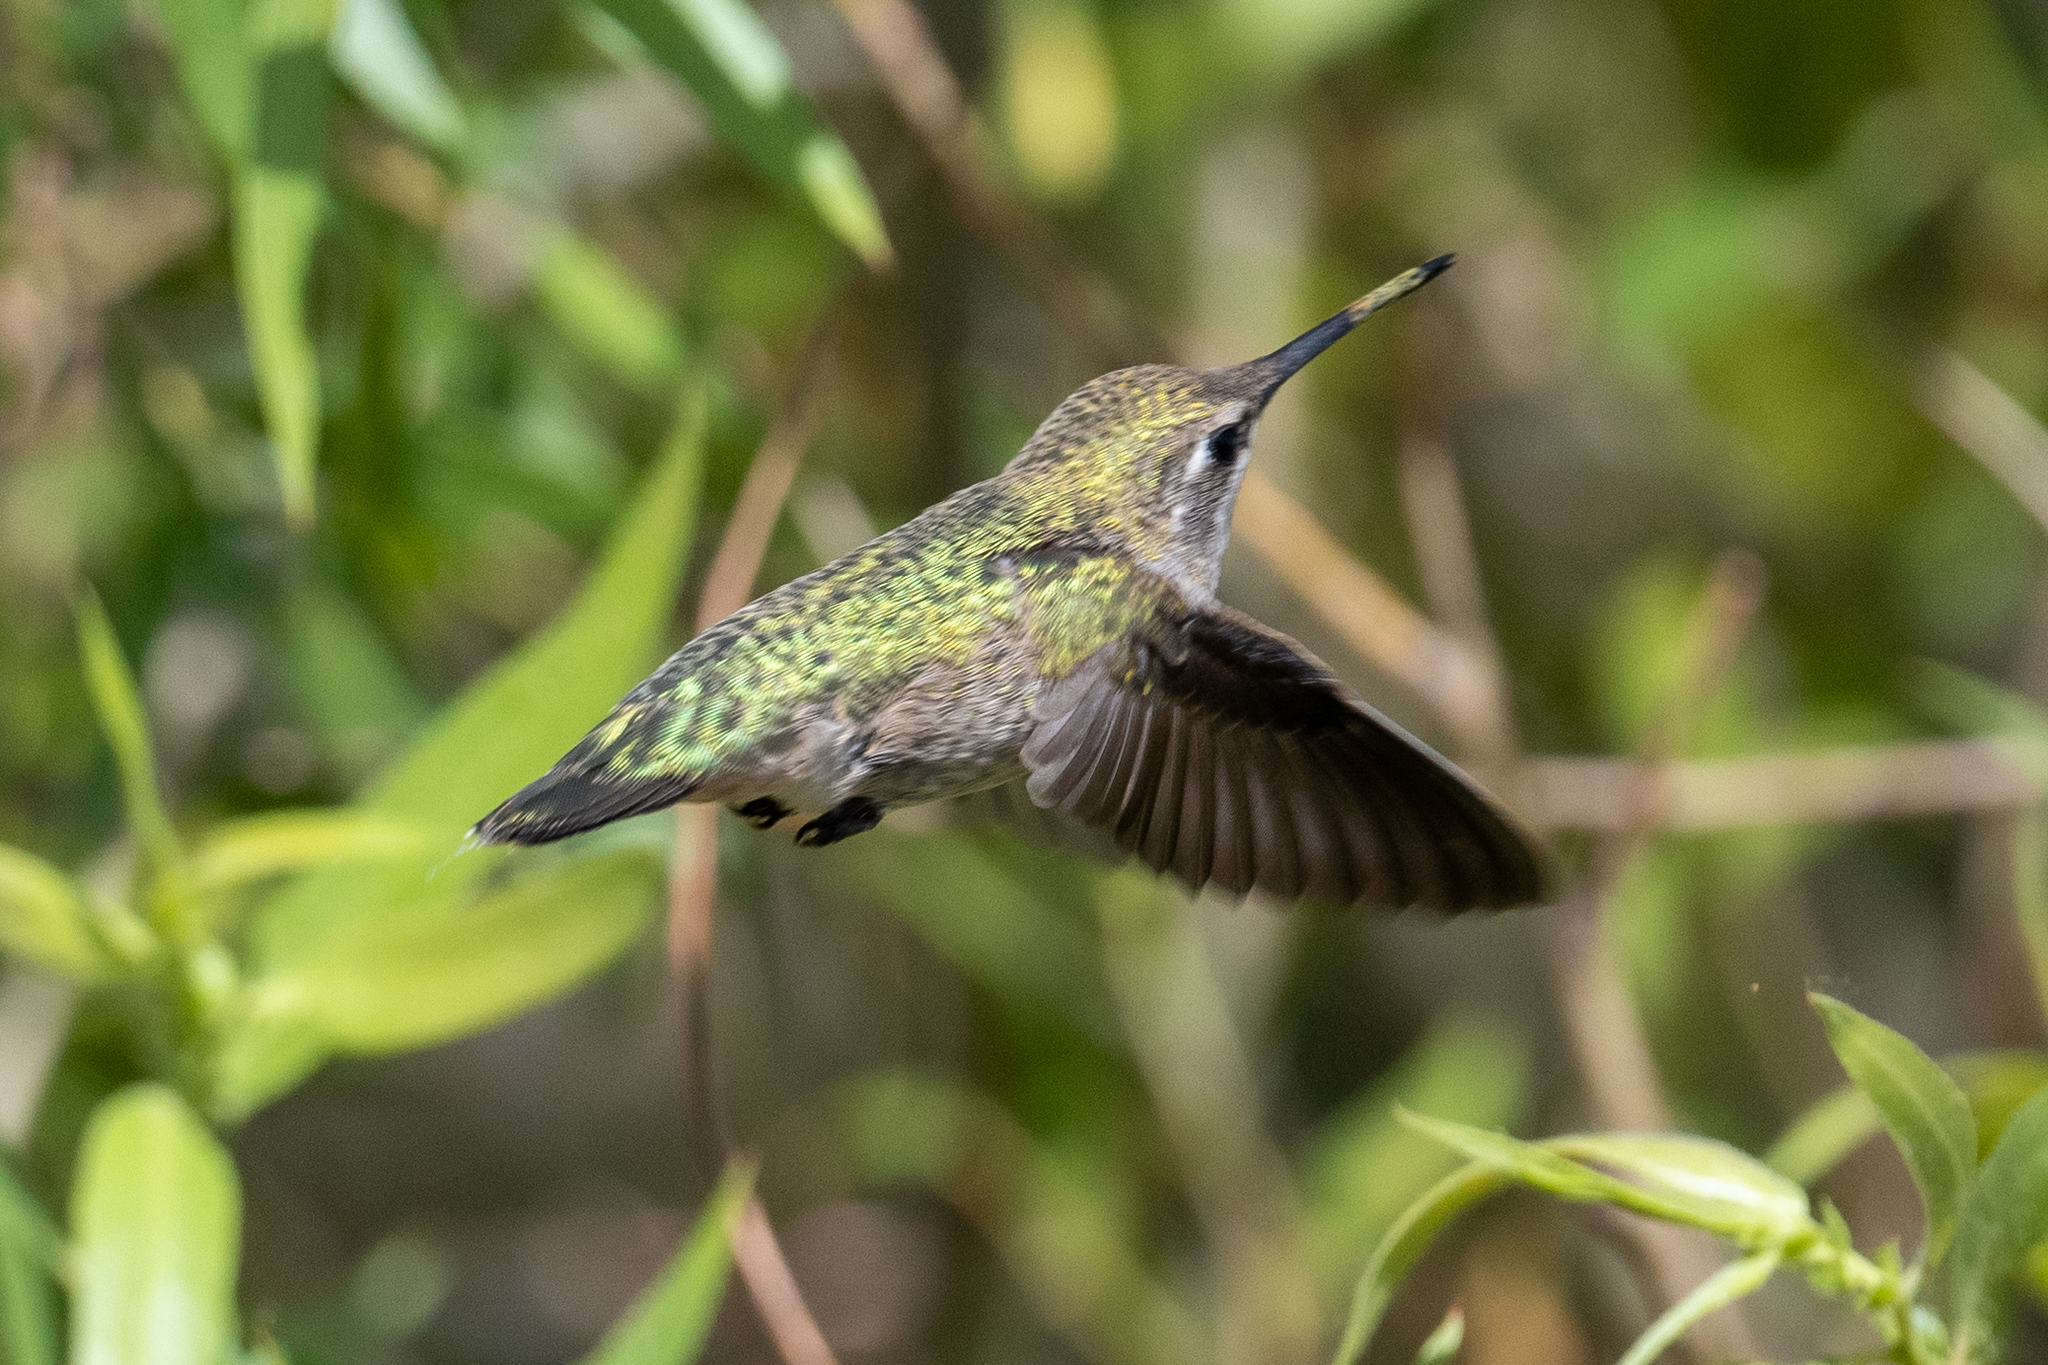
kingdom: Animalia
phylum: Chordata
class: Aves
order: Apodiformes
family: Trochilidae
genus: Calypte
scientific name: Calypte anna
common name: Anna's hummingbird
